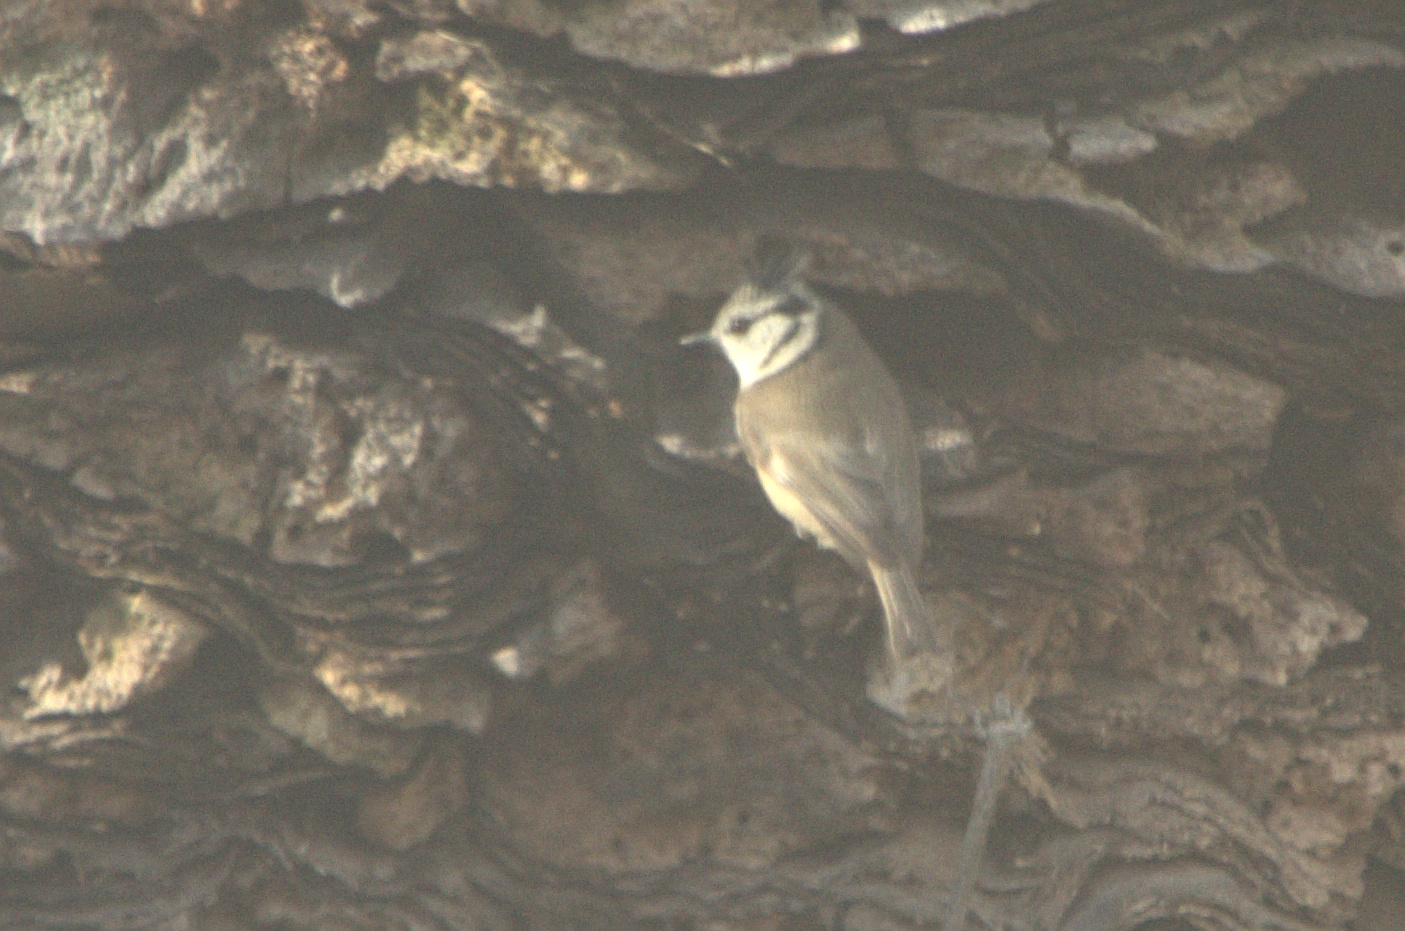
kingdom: Animalia
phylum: Chordata
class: Aves
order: Passeriformes
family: Paridae
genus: Lophophanes
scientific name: Lophophanes cristatus
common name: European crested tit
